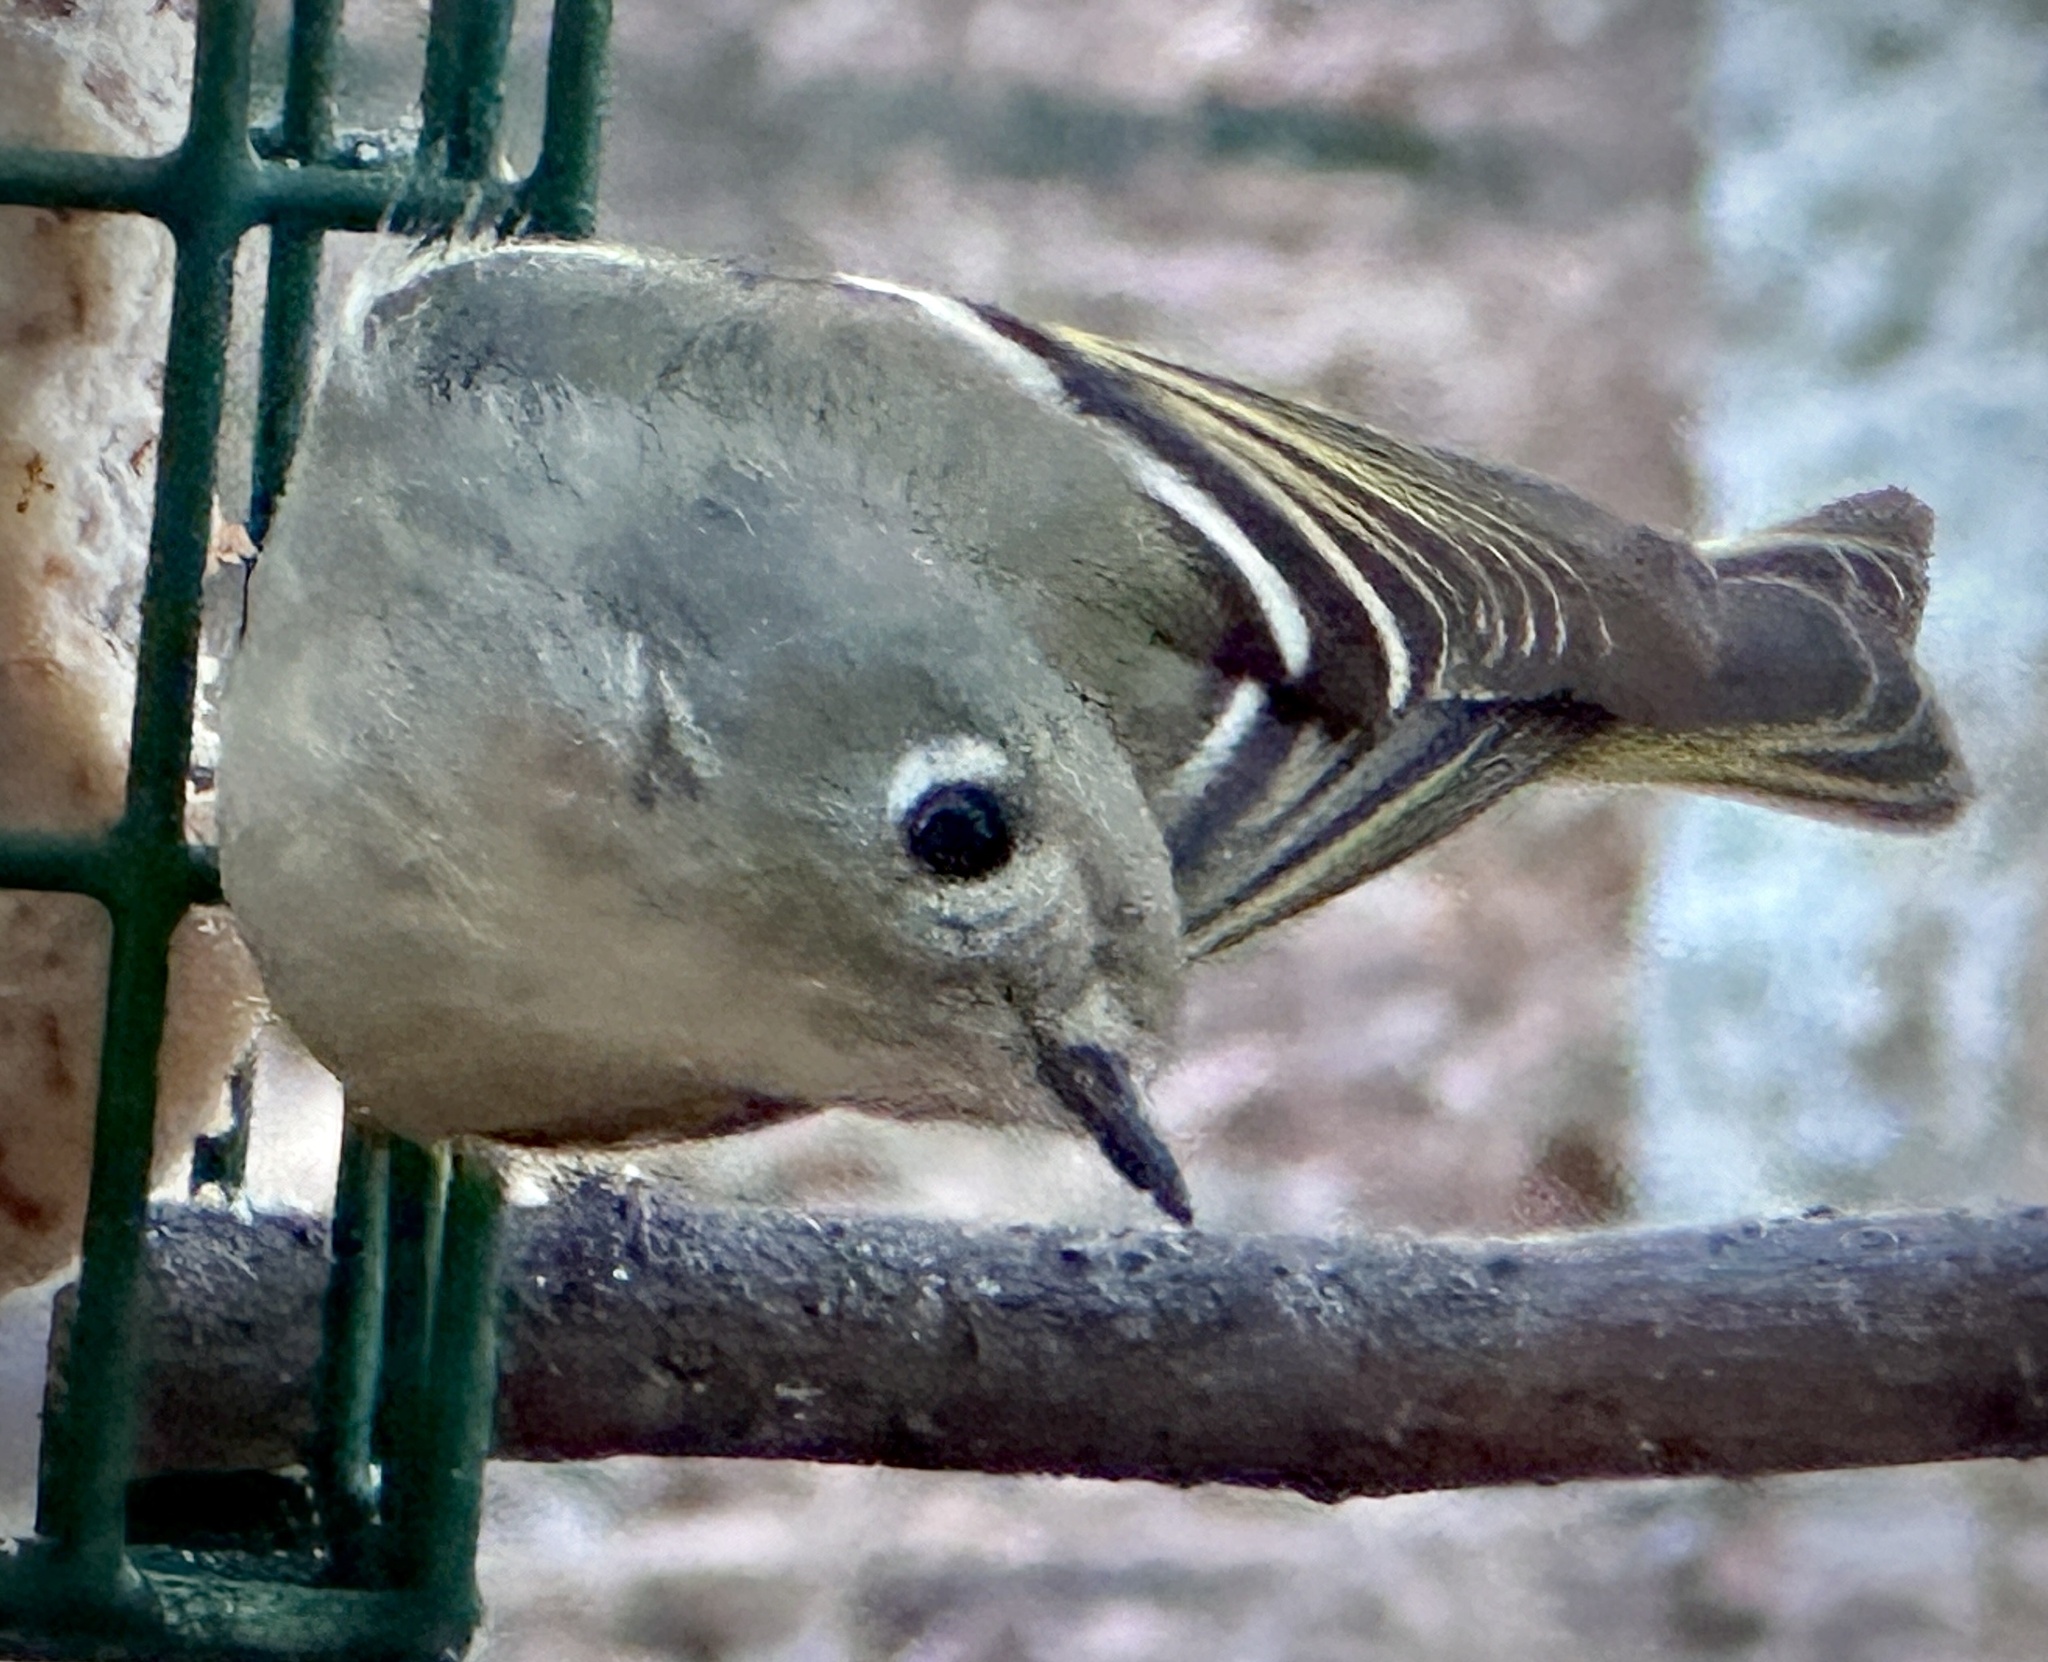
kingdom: Animalia
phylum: Chordata
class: Aves
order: Passeriformes
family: Regulidae
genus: Regulus
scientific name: Regulus calendula
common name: Ruby-crowned kinglet
